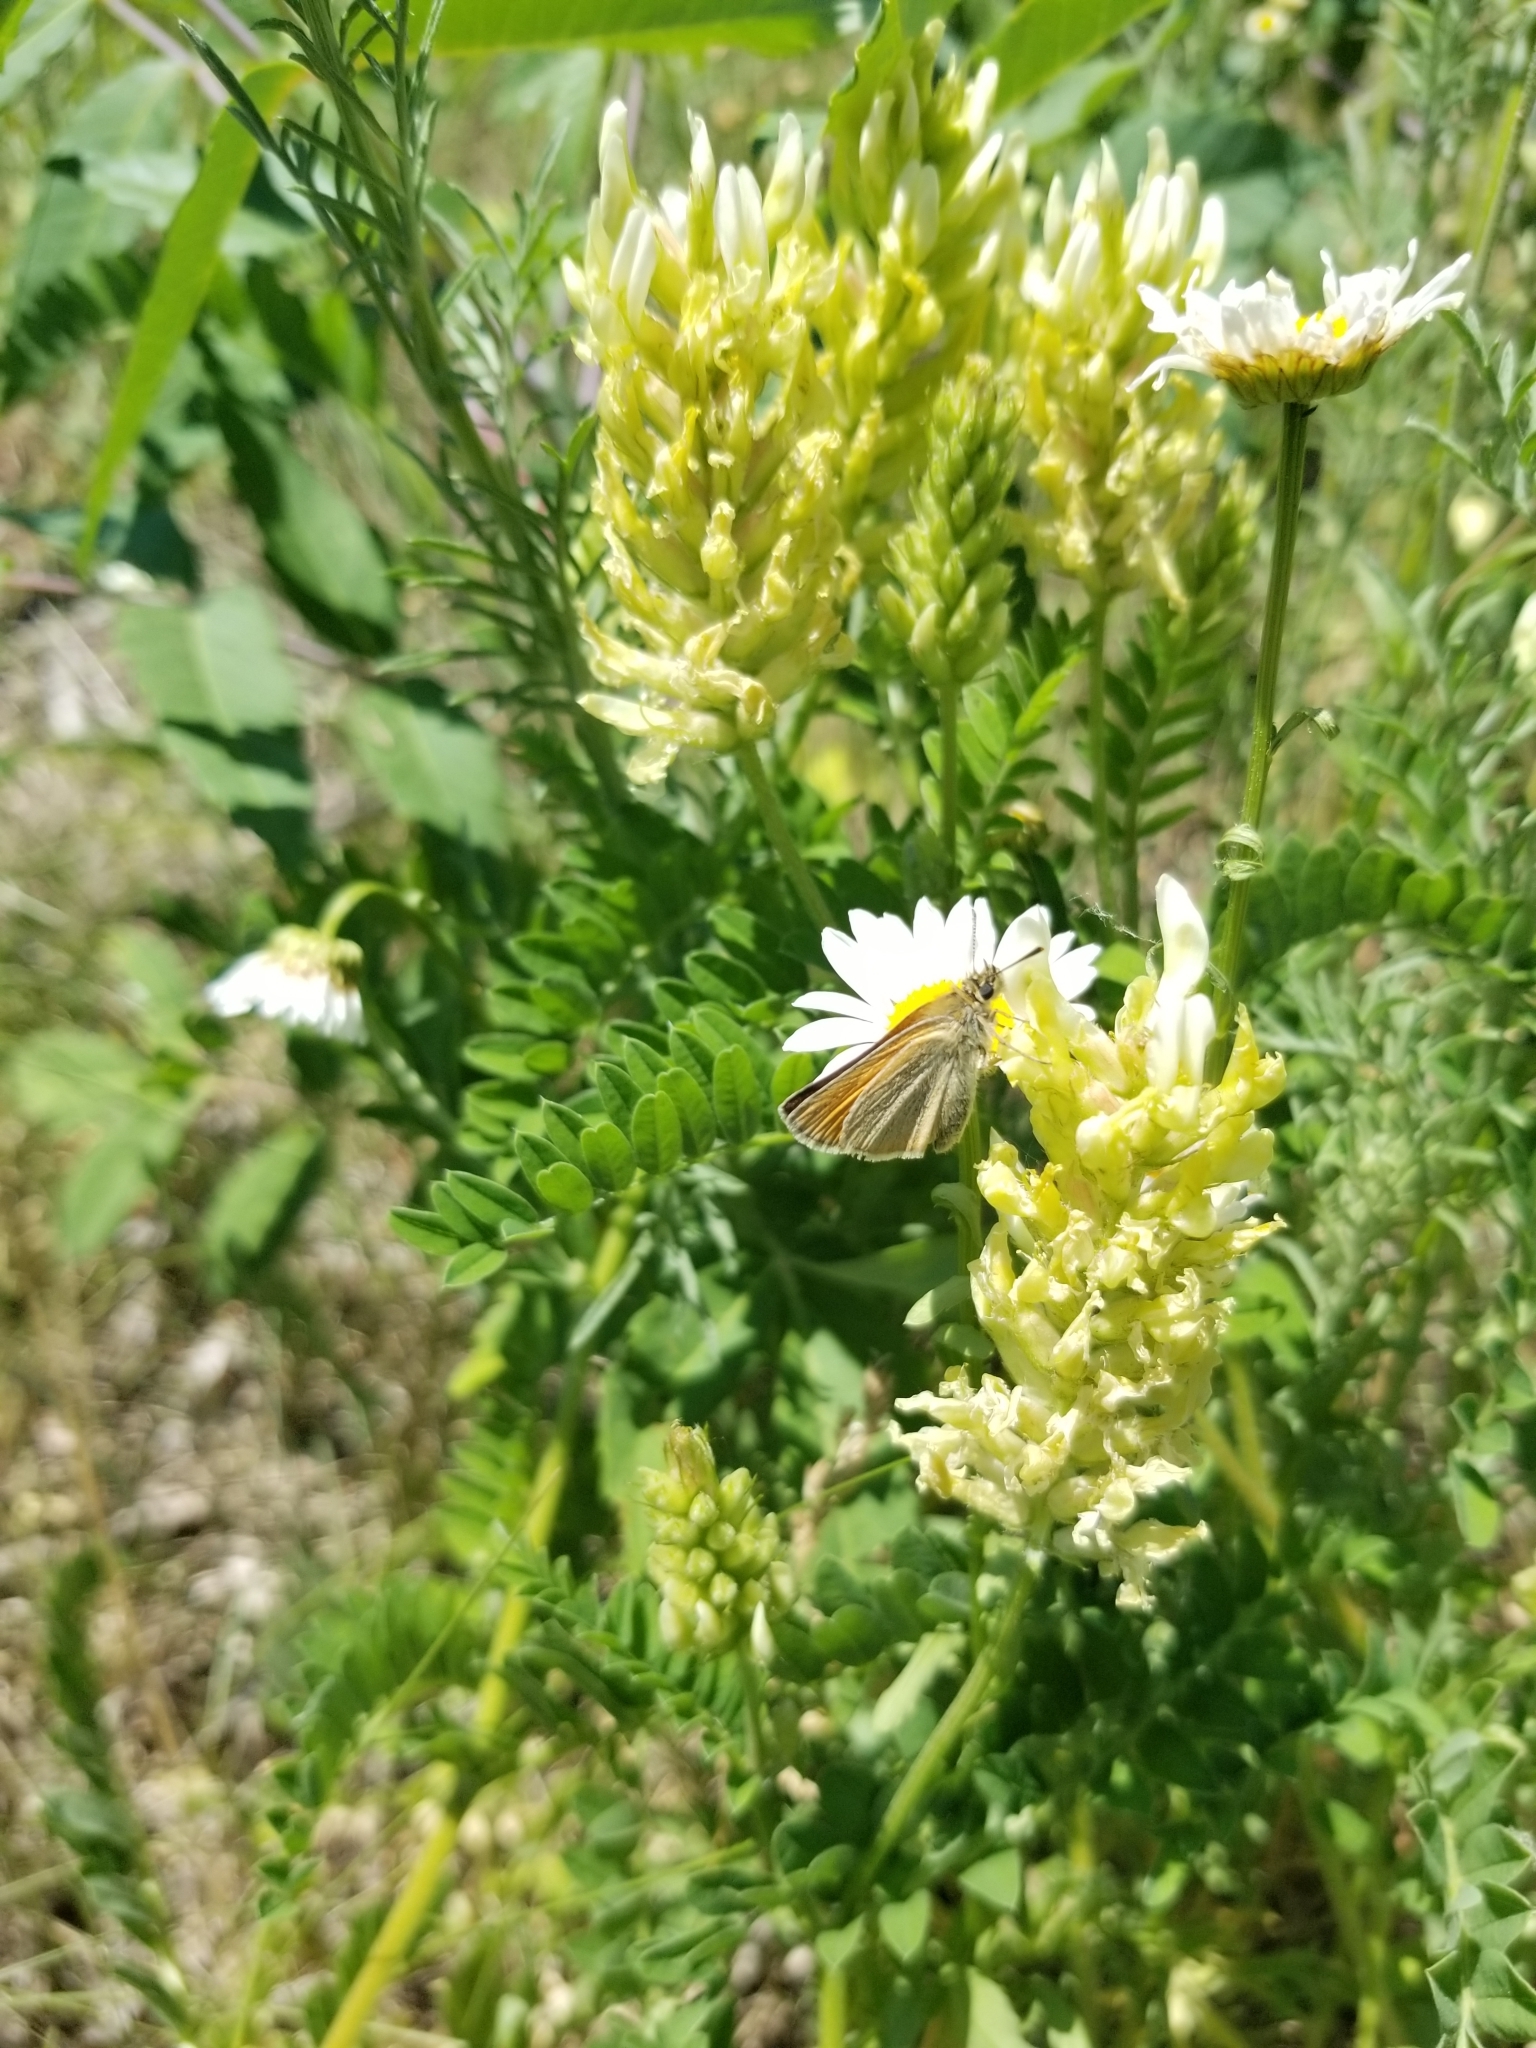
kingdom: Animalia
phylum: Arthropoda
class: Insecta
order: Lepidoptera
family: Hesperiidae
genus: Thymelicus
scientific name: Thymelicus lineola
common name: Essex skipper
